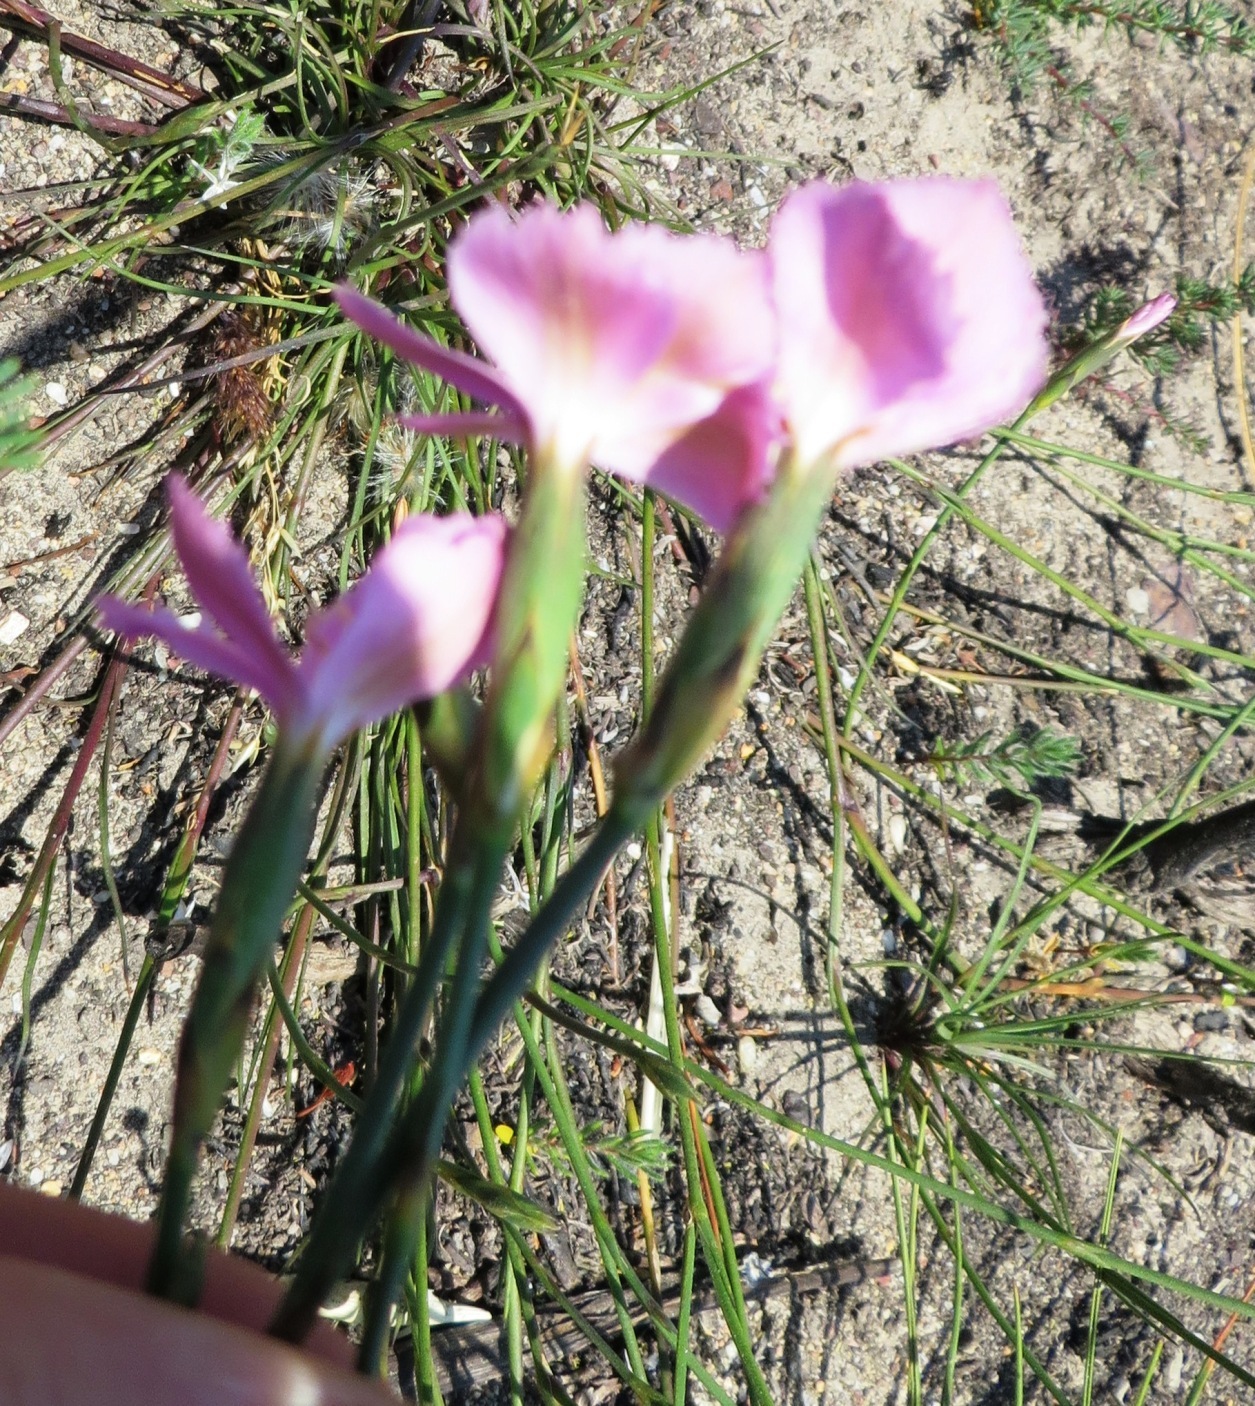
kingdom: Plantae
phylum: Tracheophyta
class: Magnoliopsida
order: Caryophyllales
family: Caryophyllaceae
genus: Dianthus
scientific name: Dianthus albens
